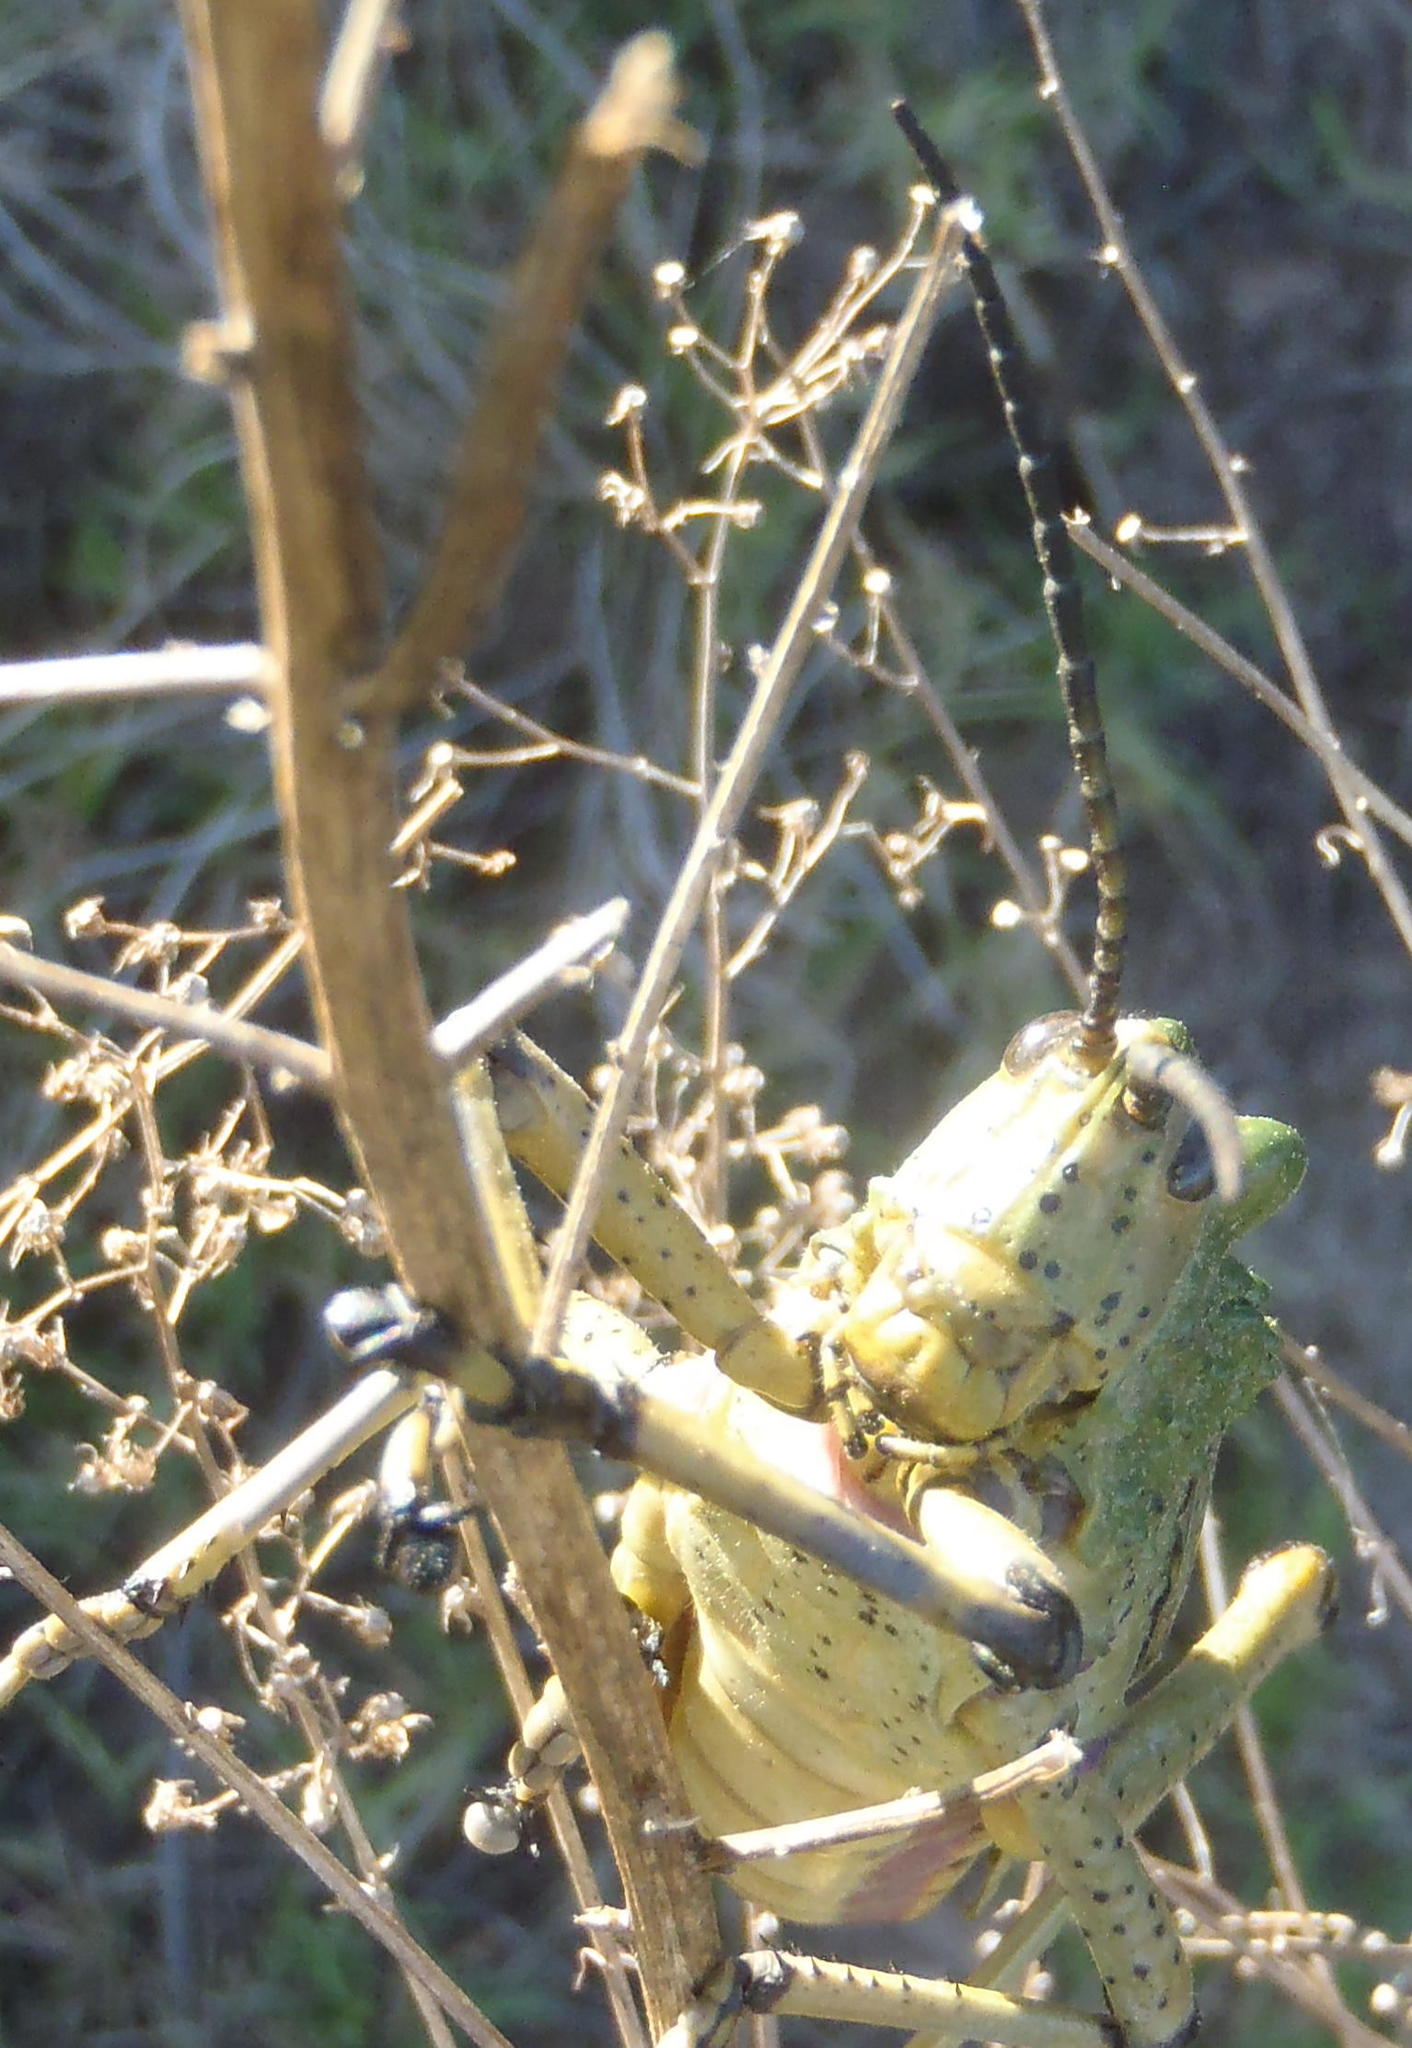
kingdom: Animalia
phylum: Arthropoda
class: Insecta
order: Orthoptera
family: Pyrgomorphidae
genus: Phymateus
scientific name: Phymateus leprosus
